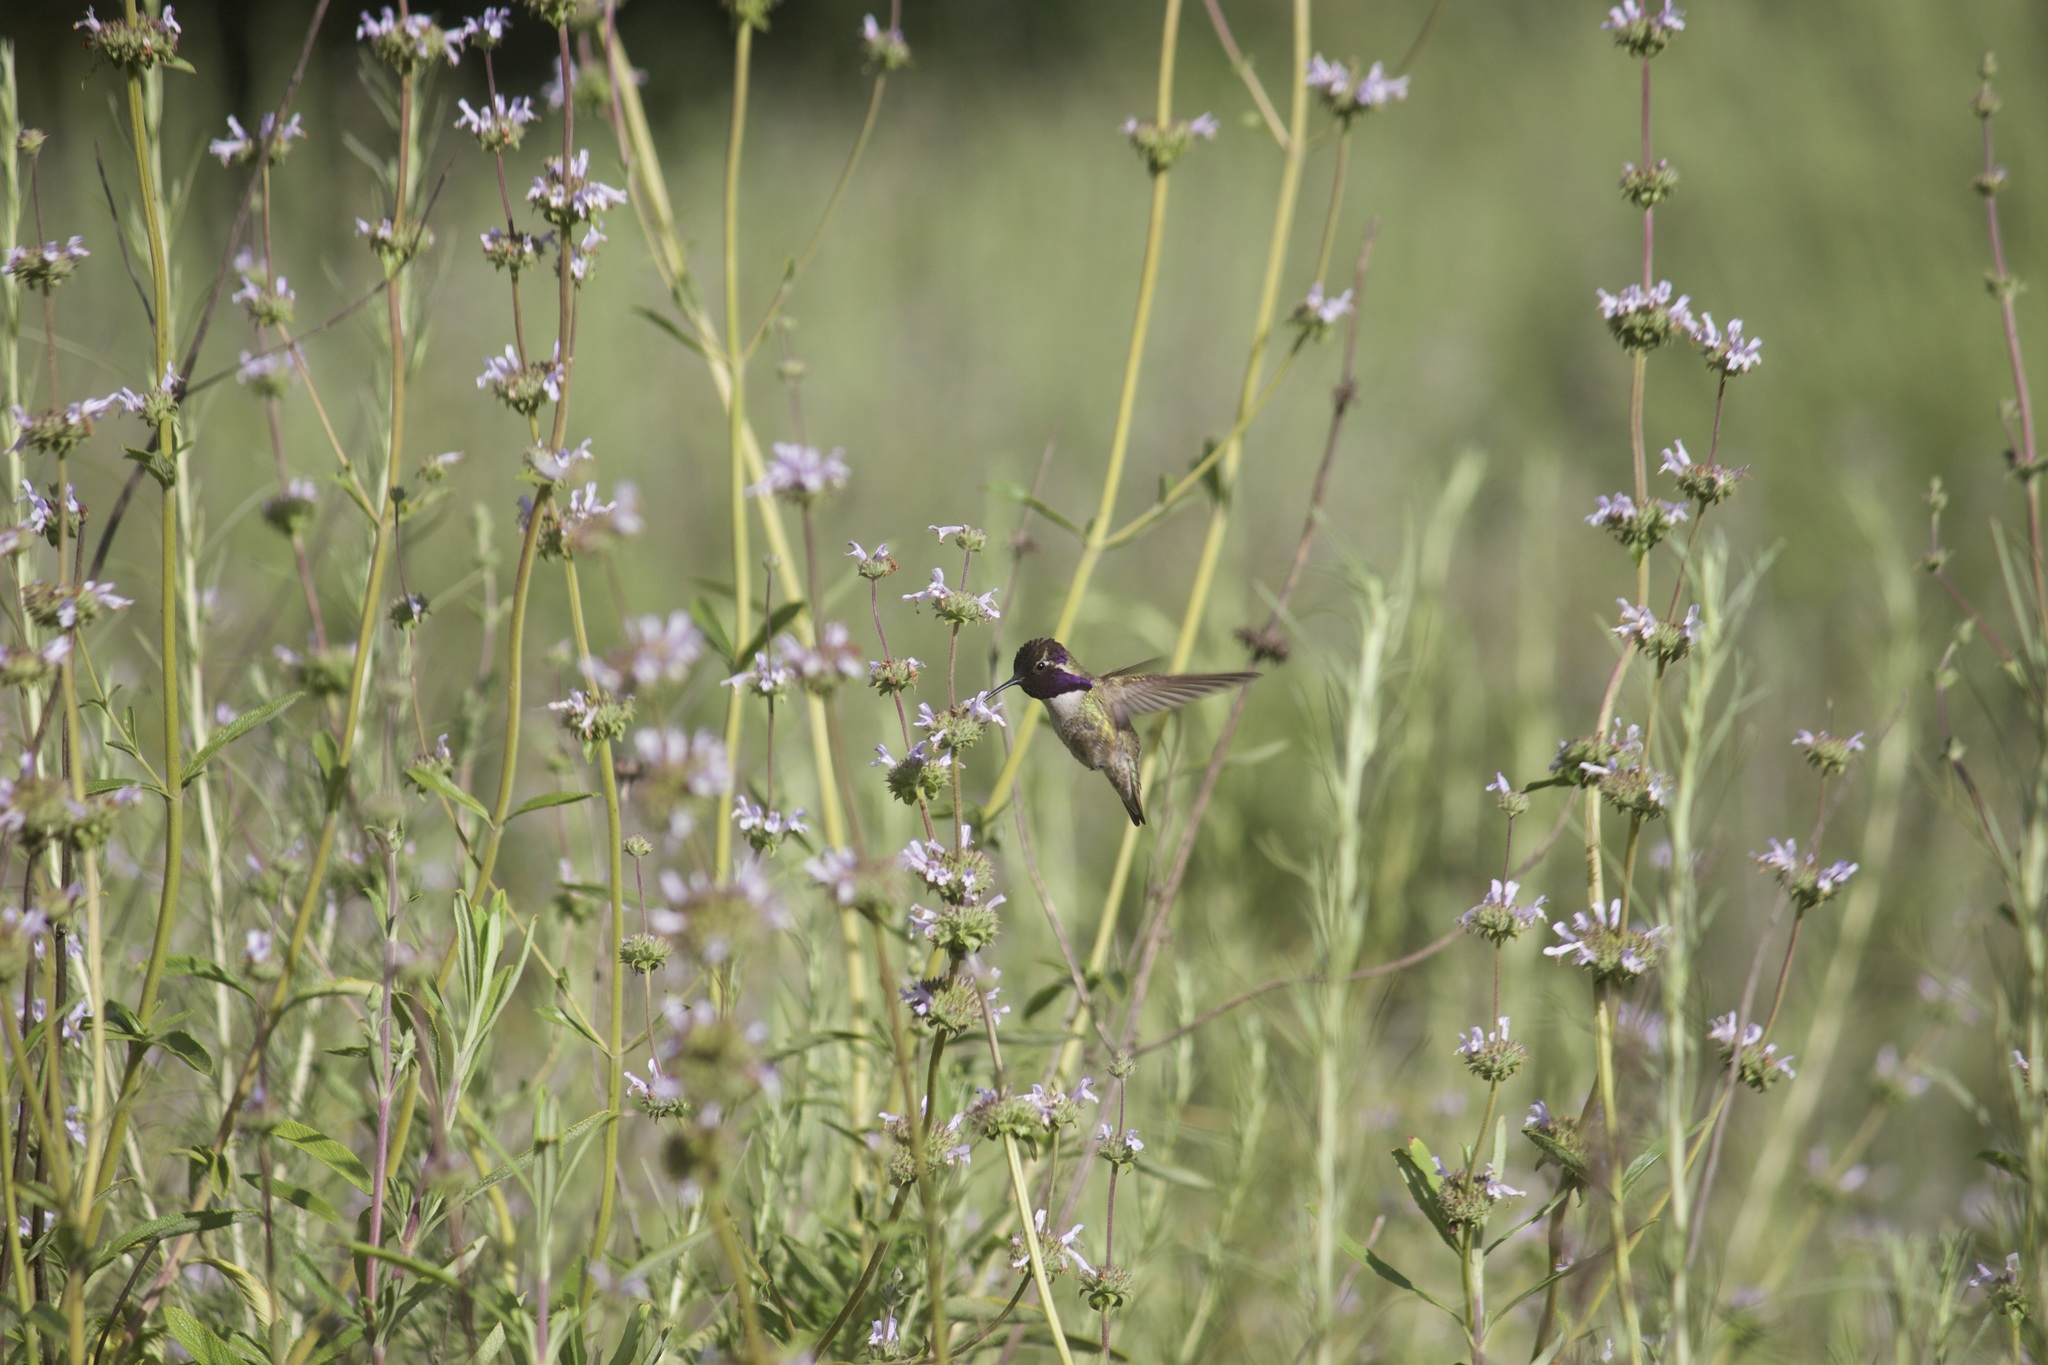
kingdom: Animalia
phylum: Chordata
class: Aves
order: Apodiformes
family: Trochilidae
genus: Calypte
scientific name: Calypte costae
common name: Costa's hummingbird
